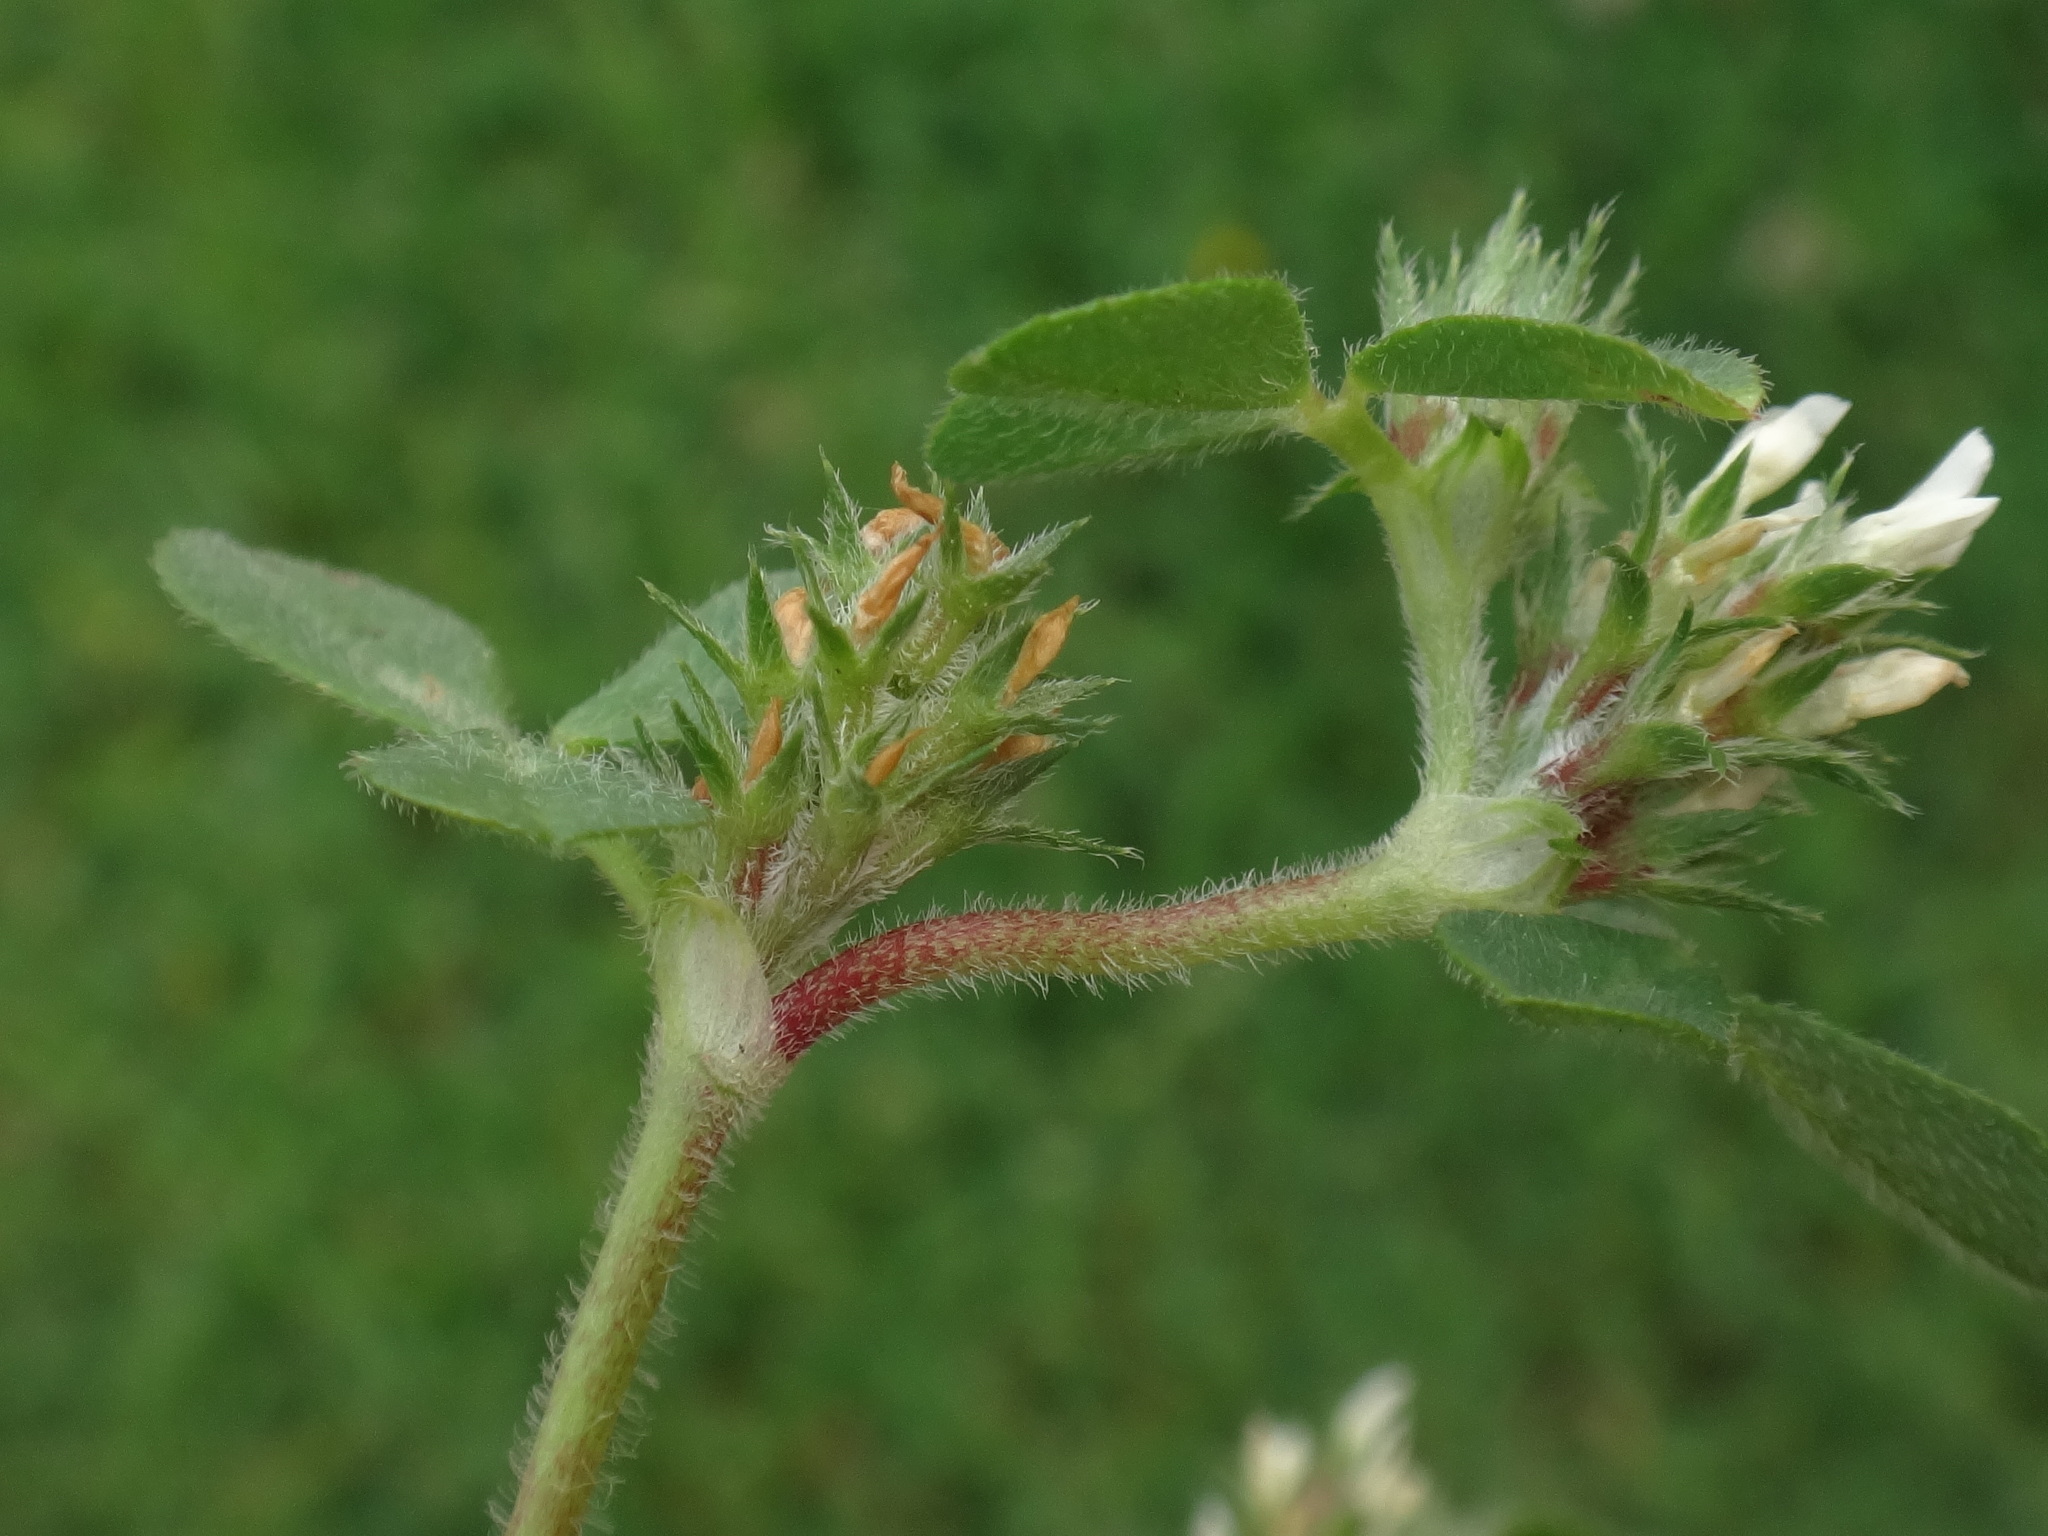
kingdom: Plantae
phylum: Tracheophyta
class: Magnoliopsida
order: Fabales
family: Fabaceae
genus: Trifolium
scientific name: Trifolium scabrum
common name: Rough clover
